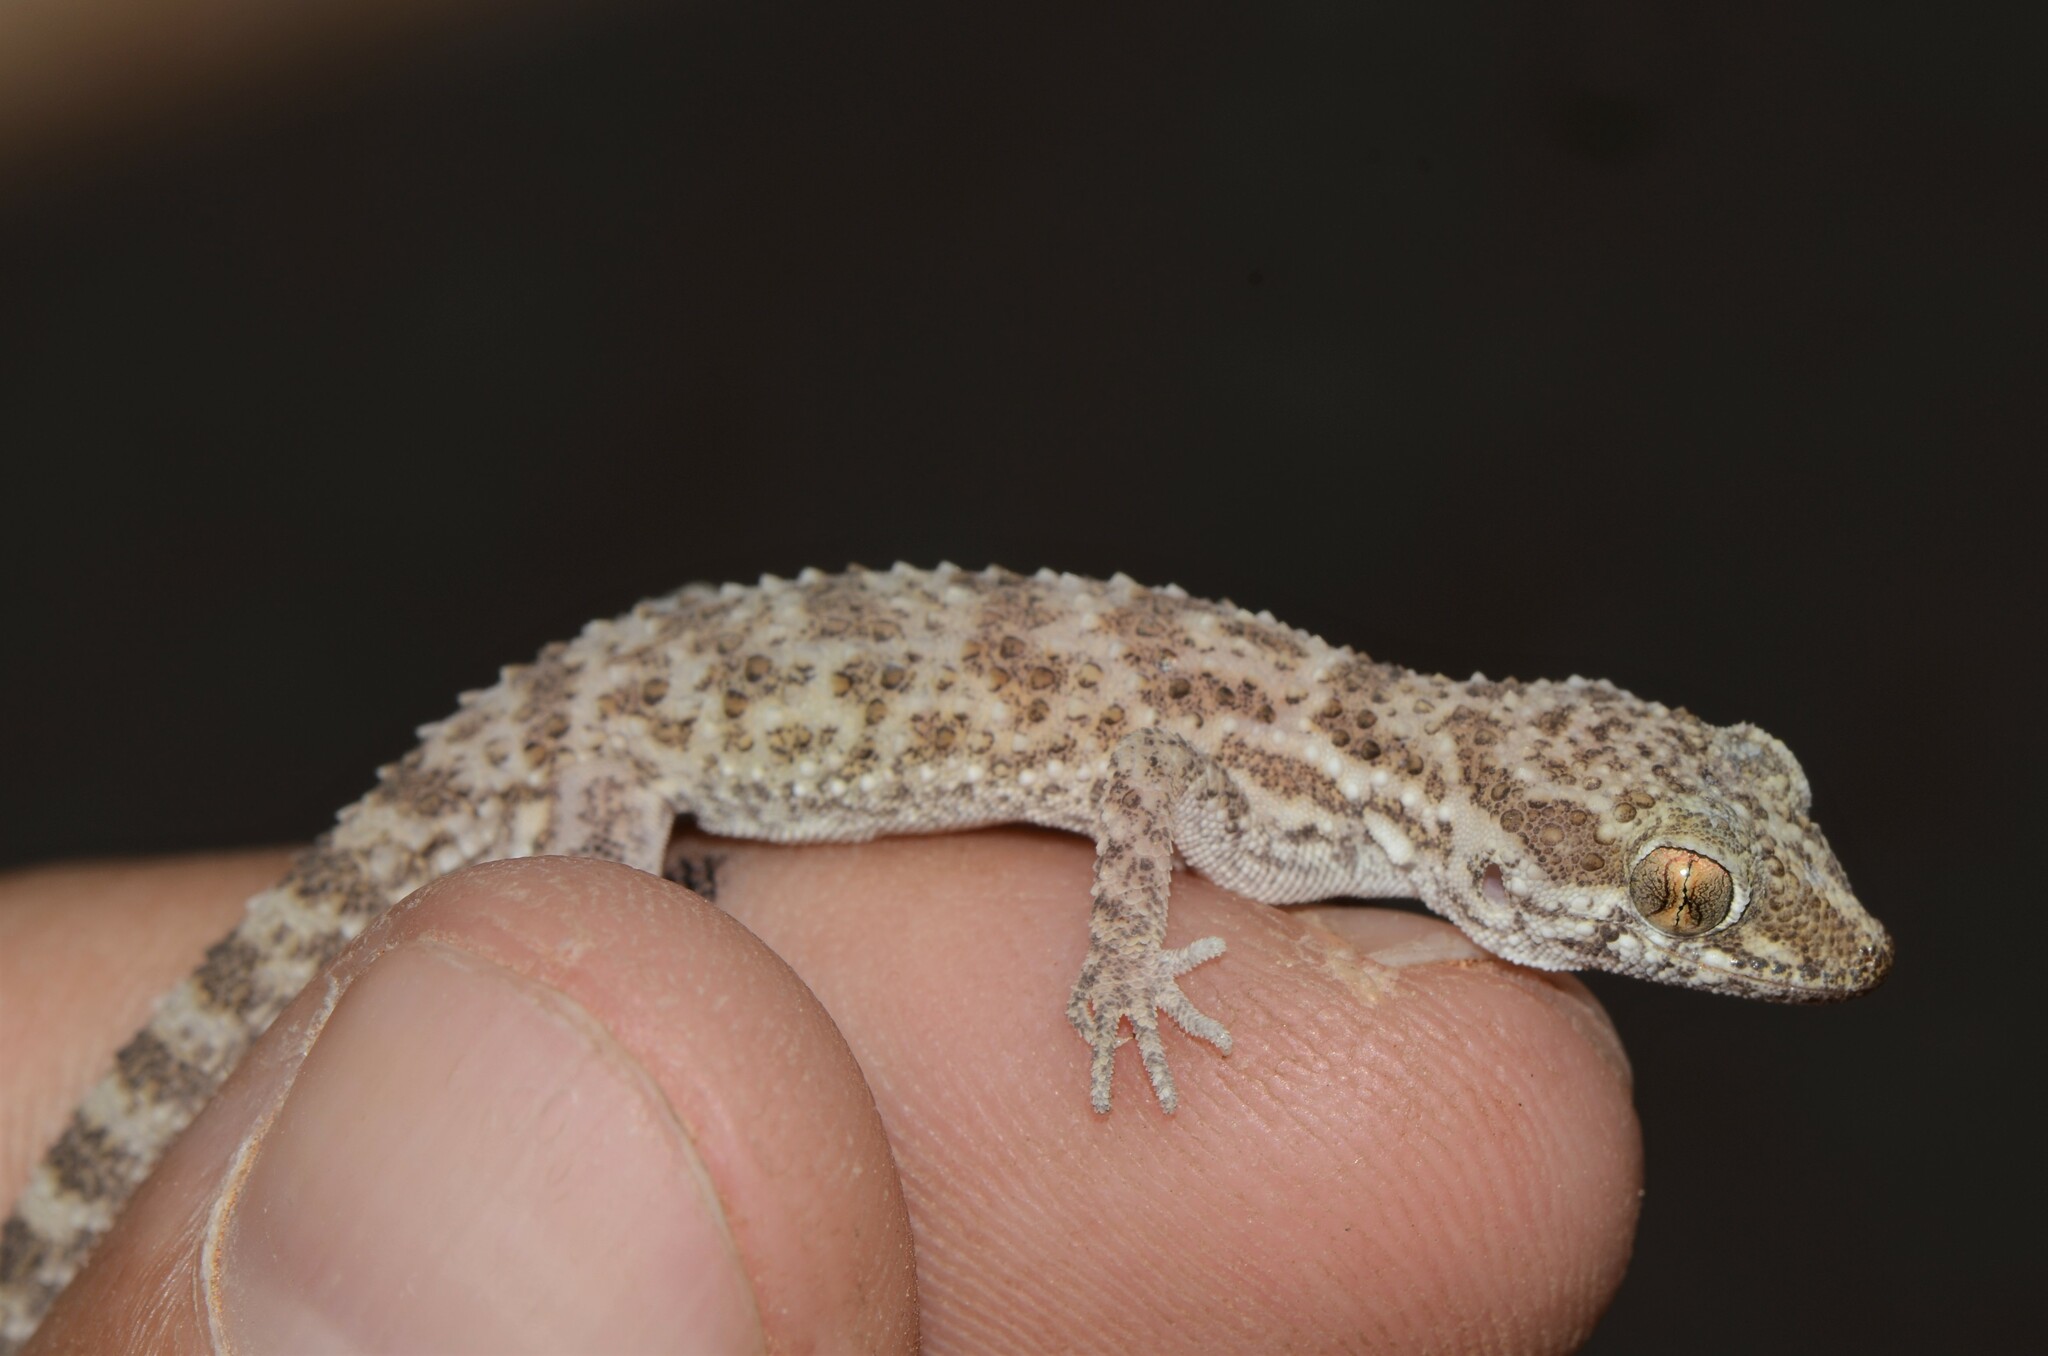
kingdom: Animalia
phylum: Chordata
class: Squamata
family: Gekkonidae
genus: Bunopus
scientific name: Bunopus tuberculatus
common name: Southern tuberculated gecko
